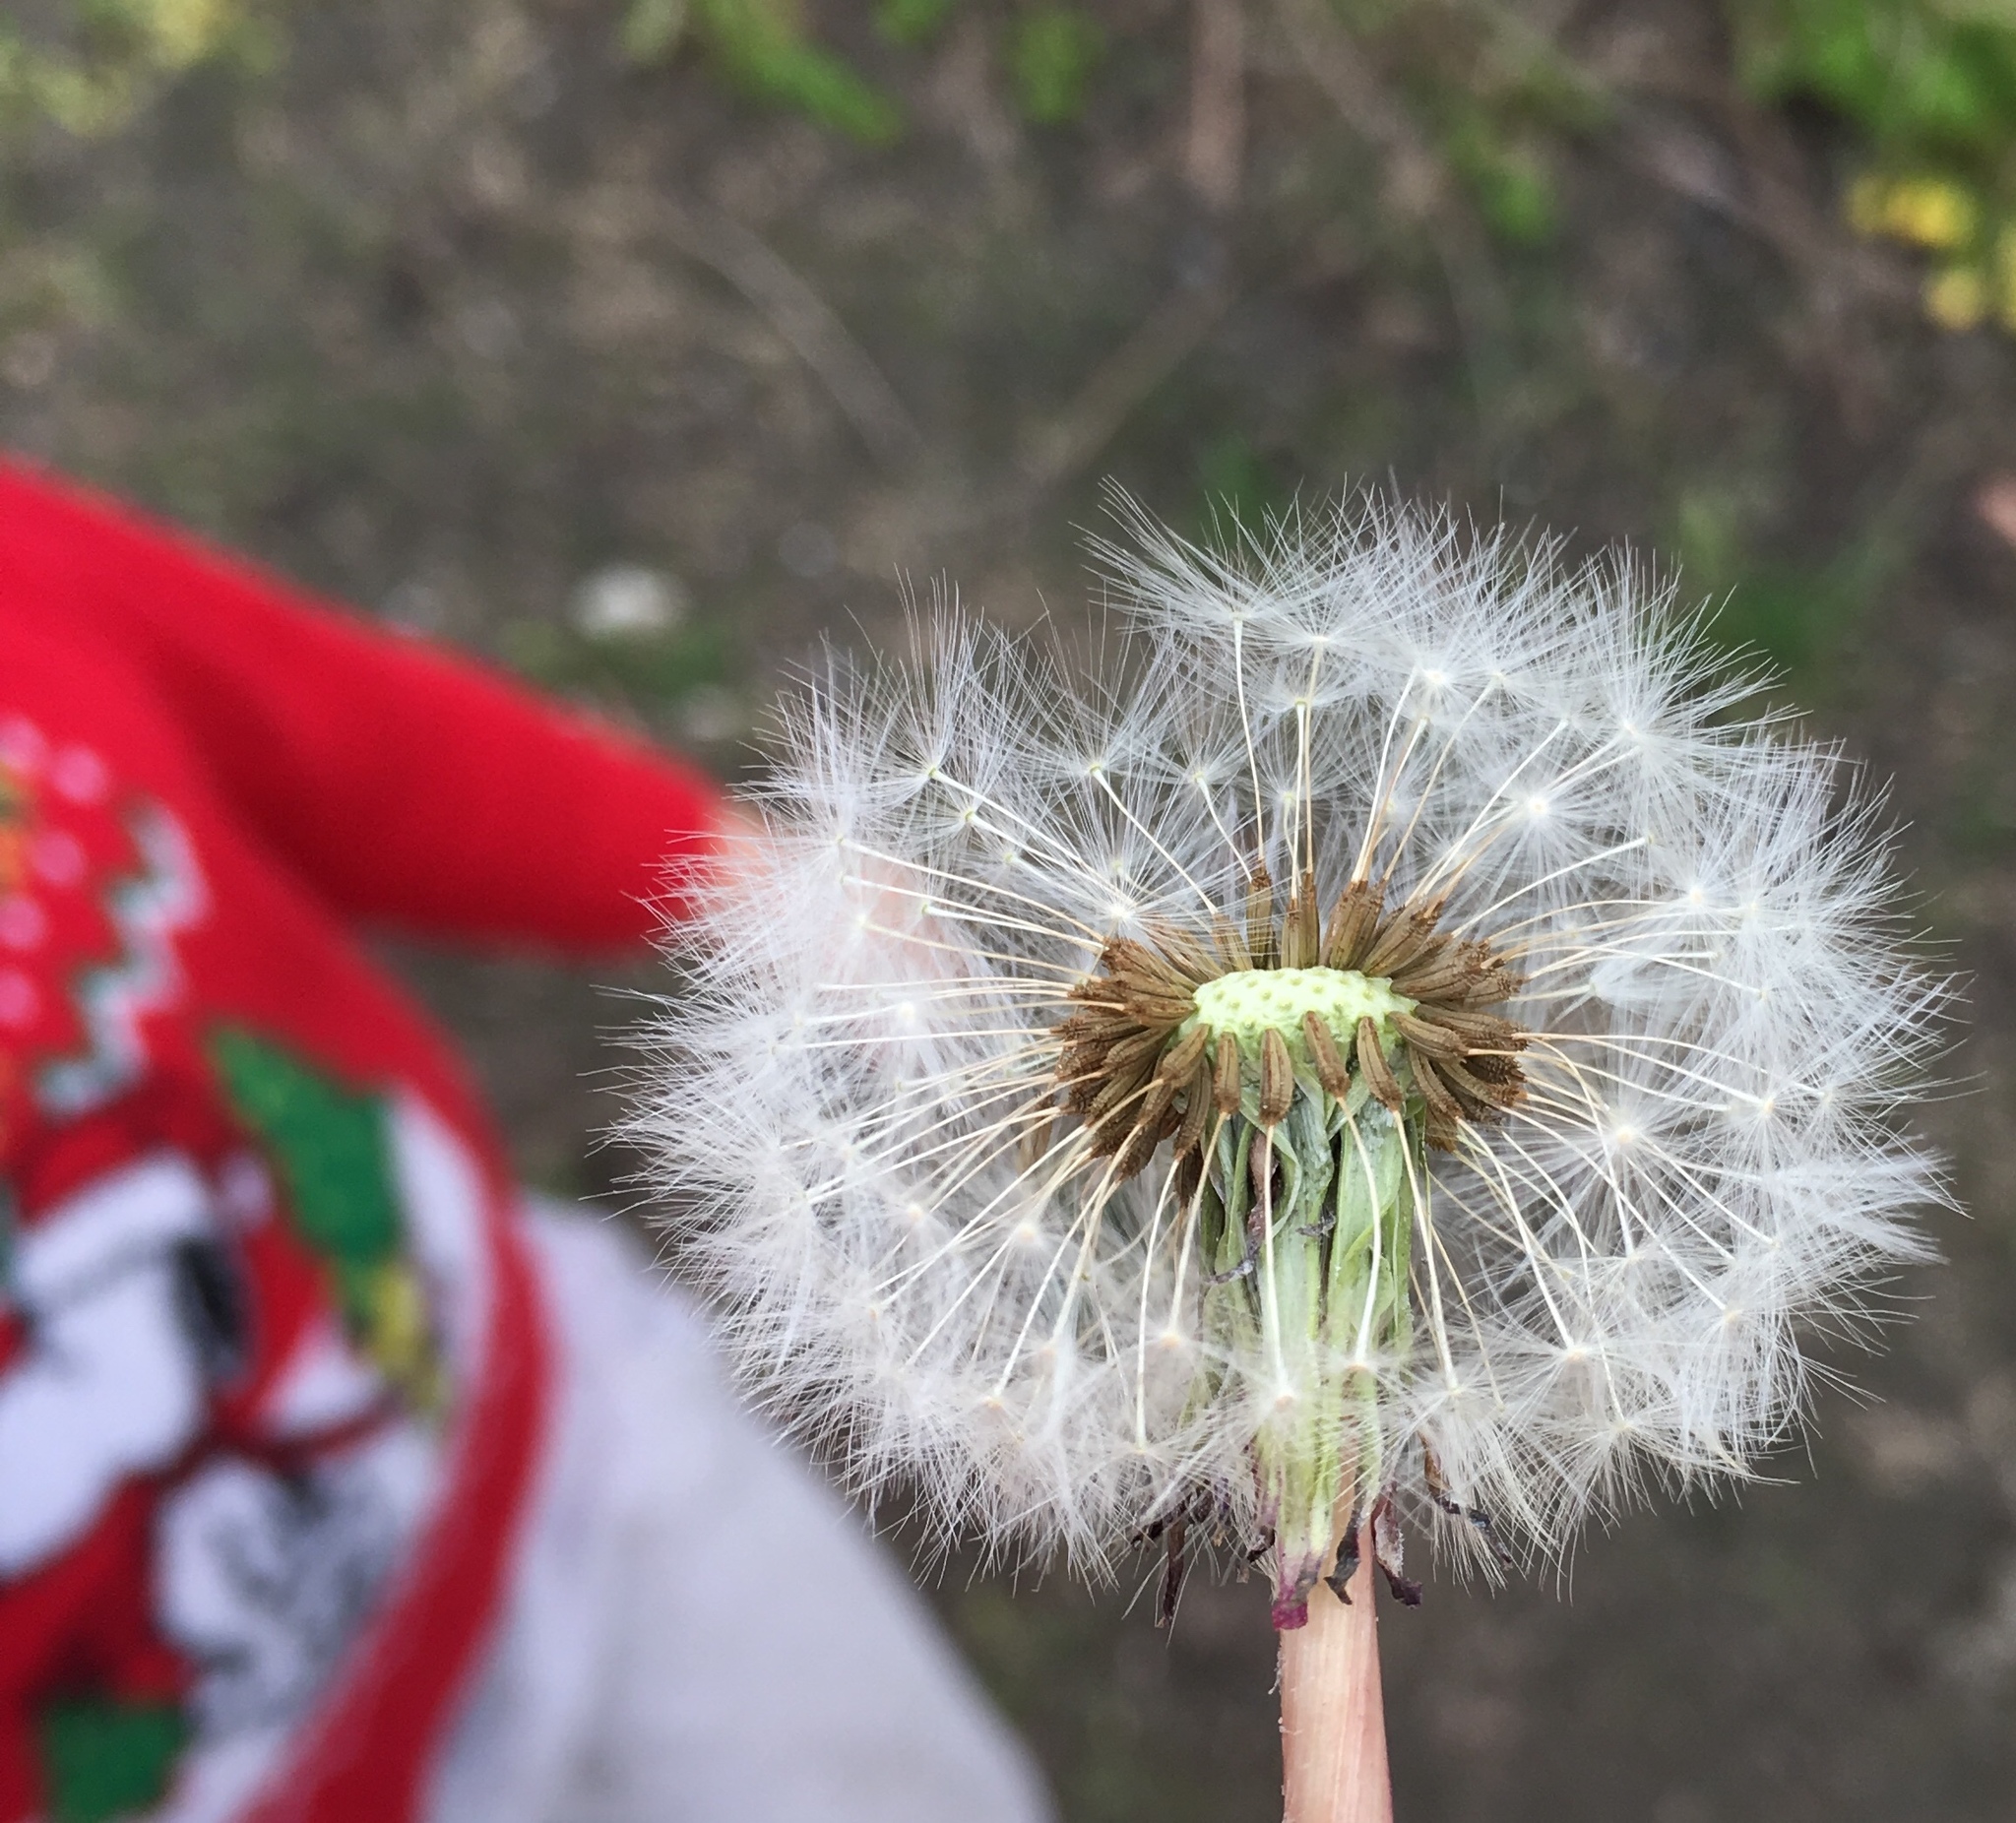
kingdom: Plantae
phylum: Tracheophyta
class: Magnoliopsida
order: Asterales
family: Asteraceae
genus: Taraxacum
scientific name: Taraxacum officinale
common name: Common dandelion
